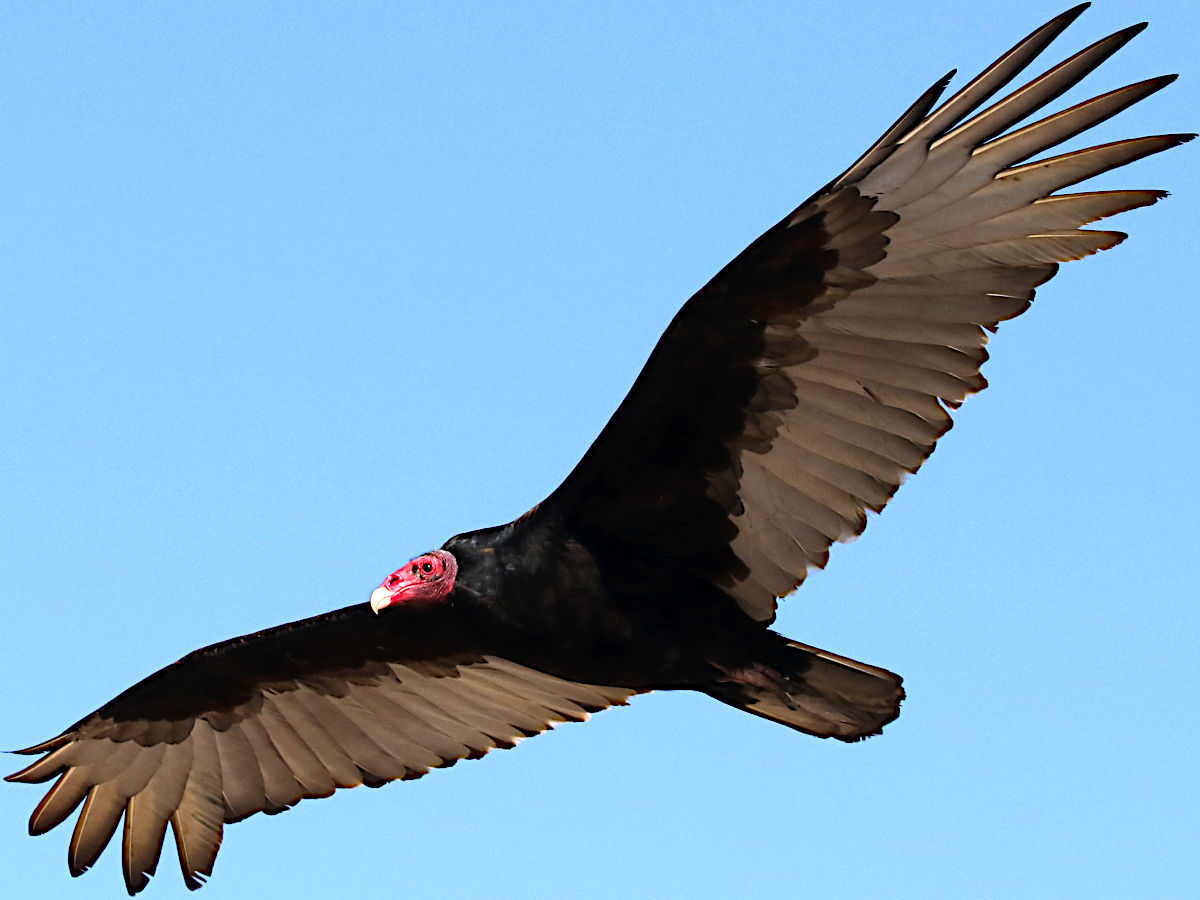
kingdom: Animalia
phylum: Chordata
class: Aves
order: Accipitriformes
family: Cathartidae
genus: Cathartes
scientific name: Cathartes aura
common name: Turkey vulture
